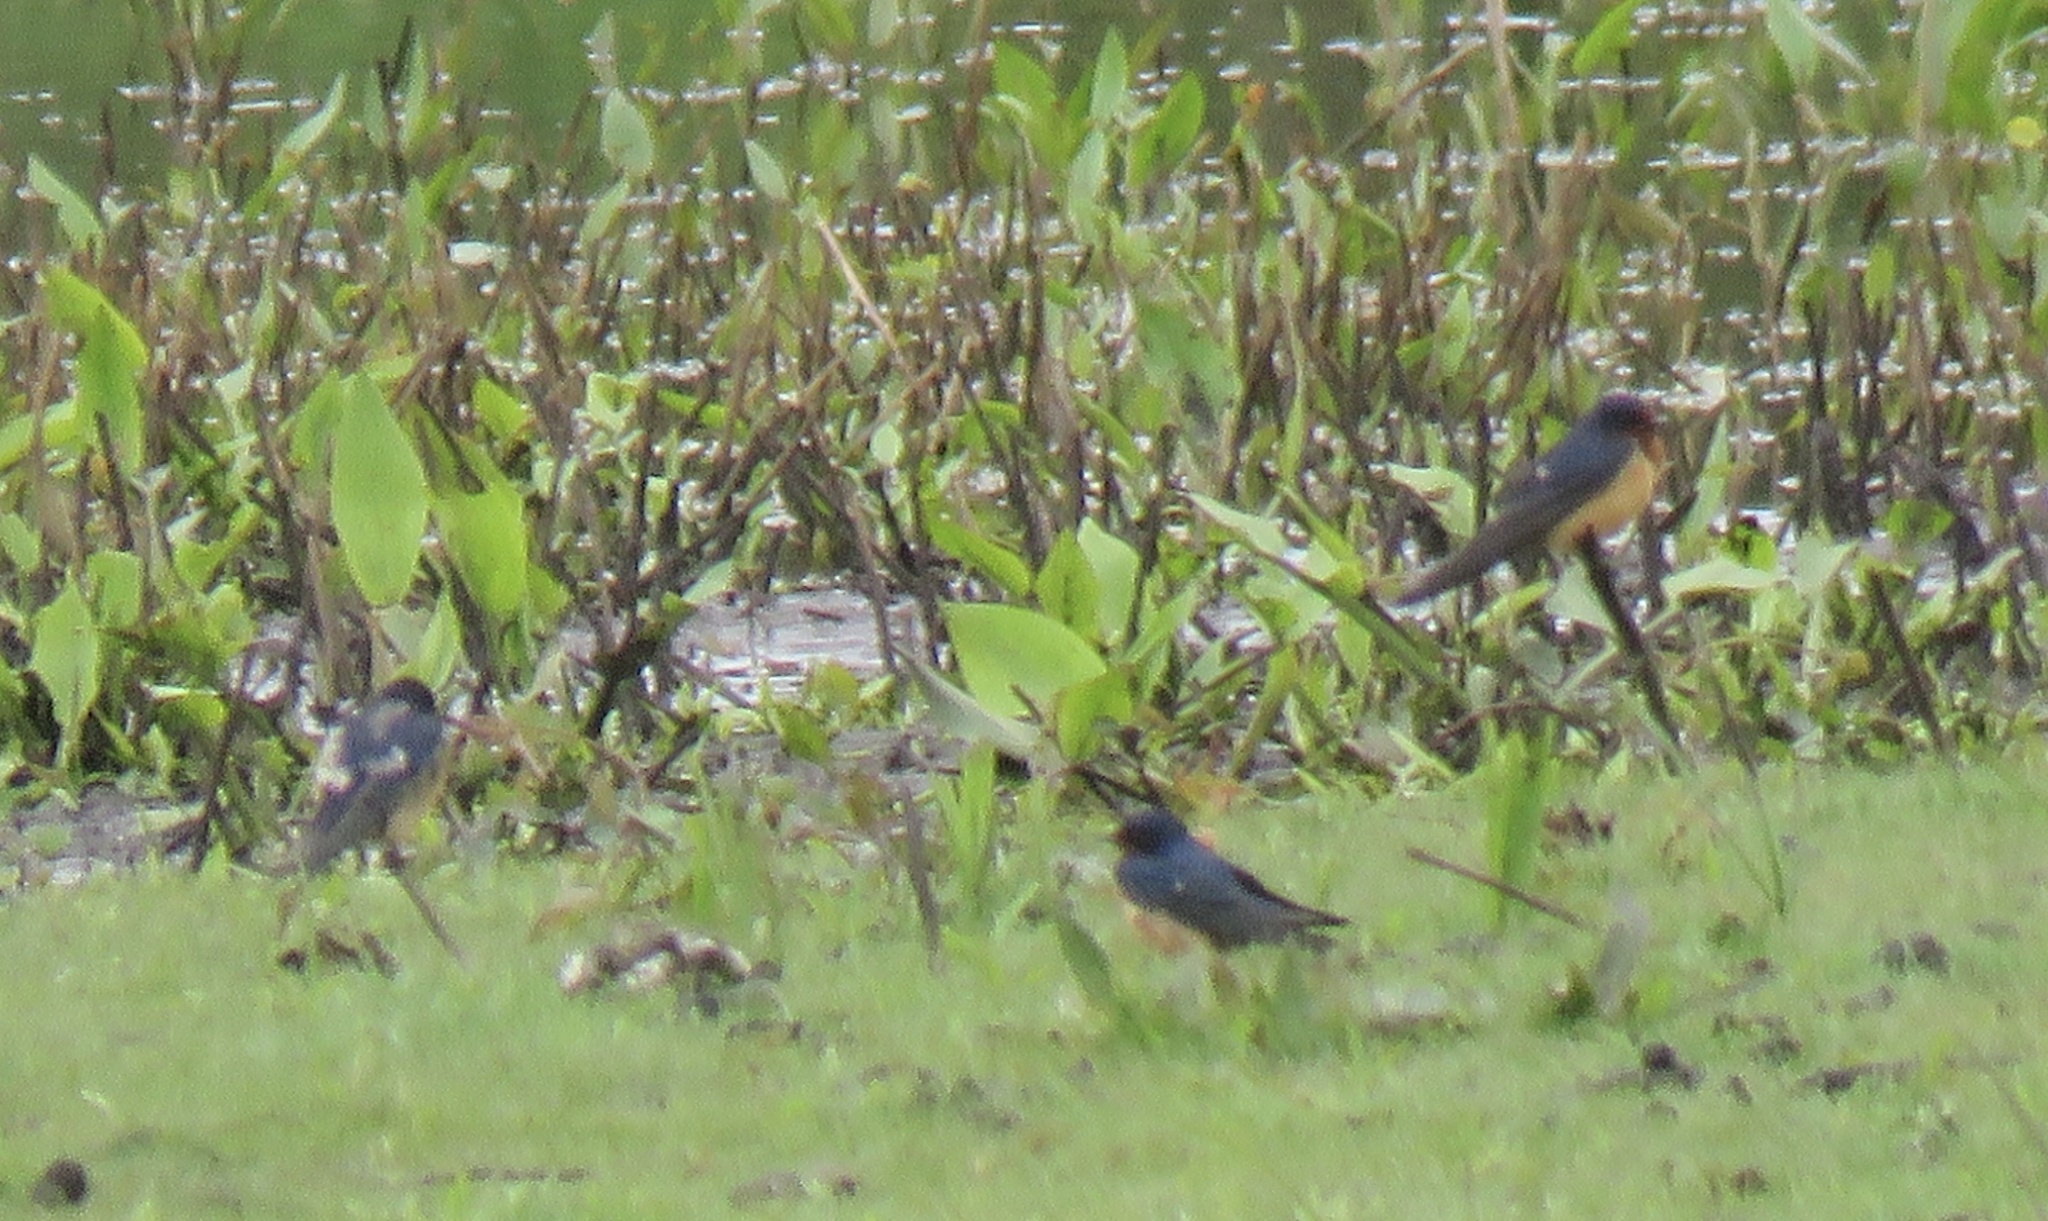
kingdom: Animalia
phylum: Chordata
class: Aves
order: Passeriformes
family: Hirundinidae
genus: Hirundo
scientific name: Hirundo rustica
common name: Barn swallow
